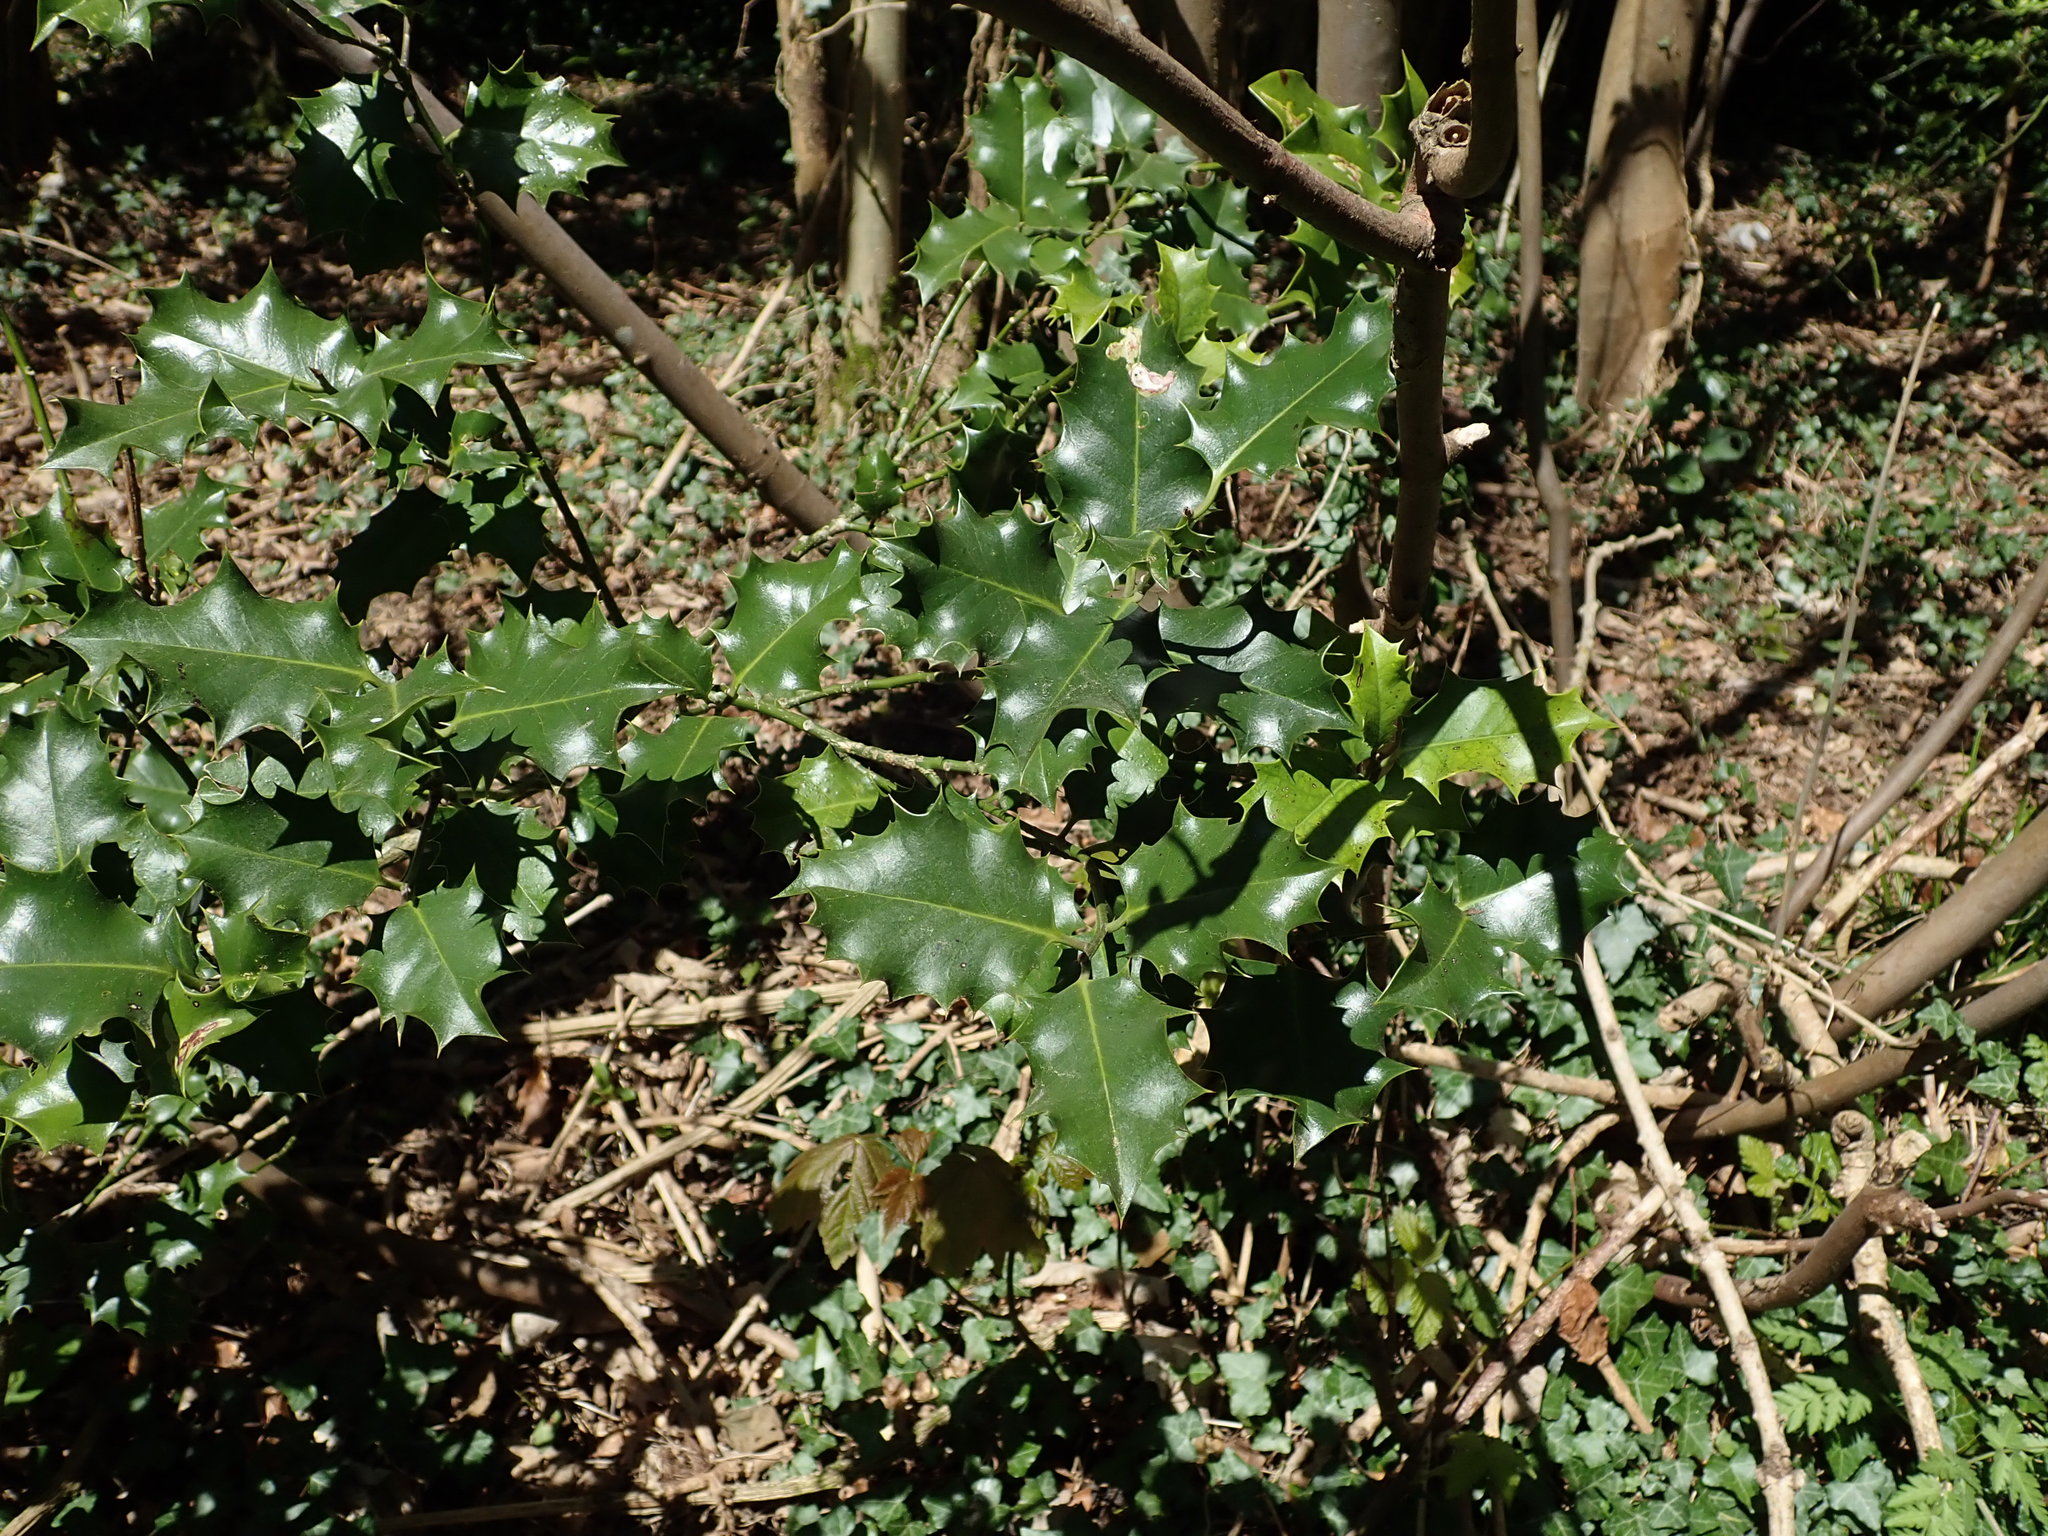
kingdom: Plantae
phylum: Tracheophyta
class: Magnoliopsida
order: Aquifoliales
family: Aquifoliaceae
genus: Ilex
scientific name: Ilex aquifolium
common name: English holly
